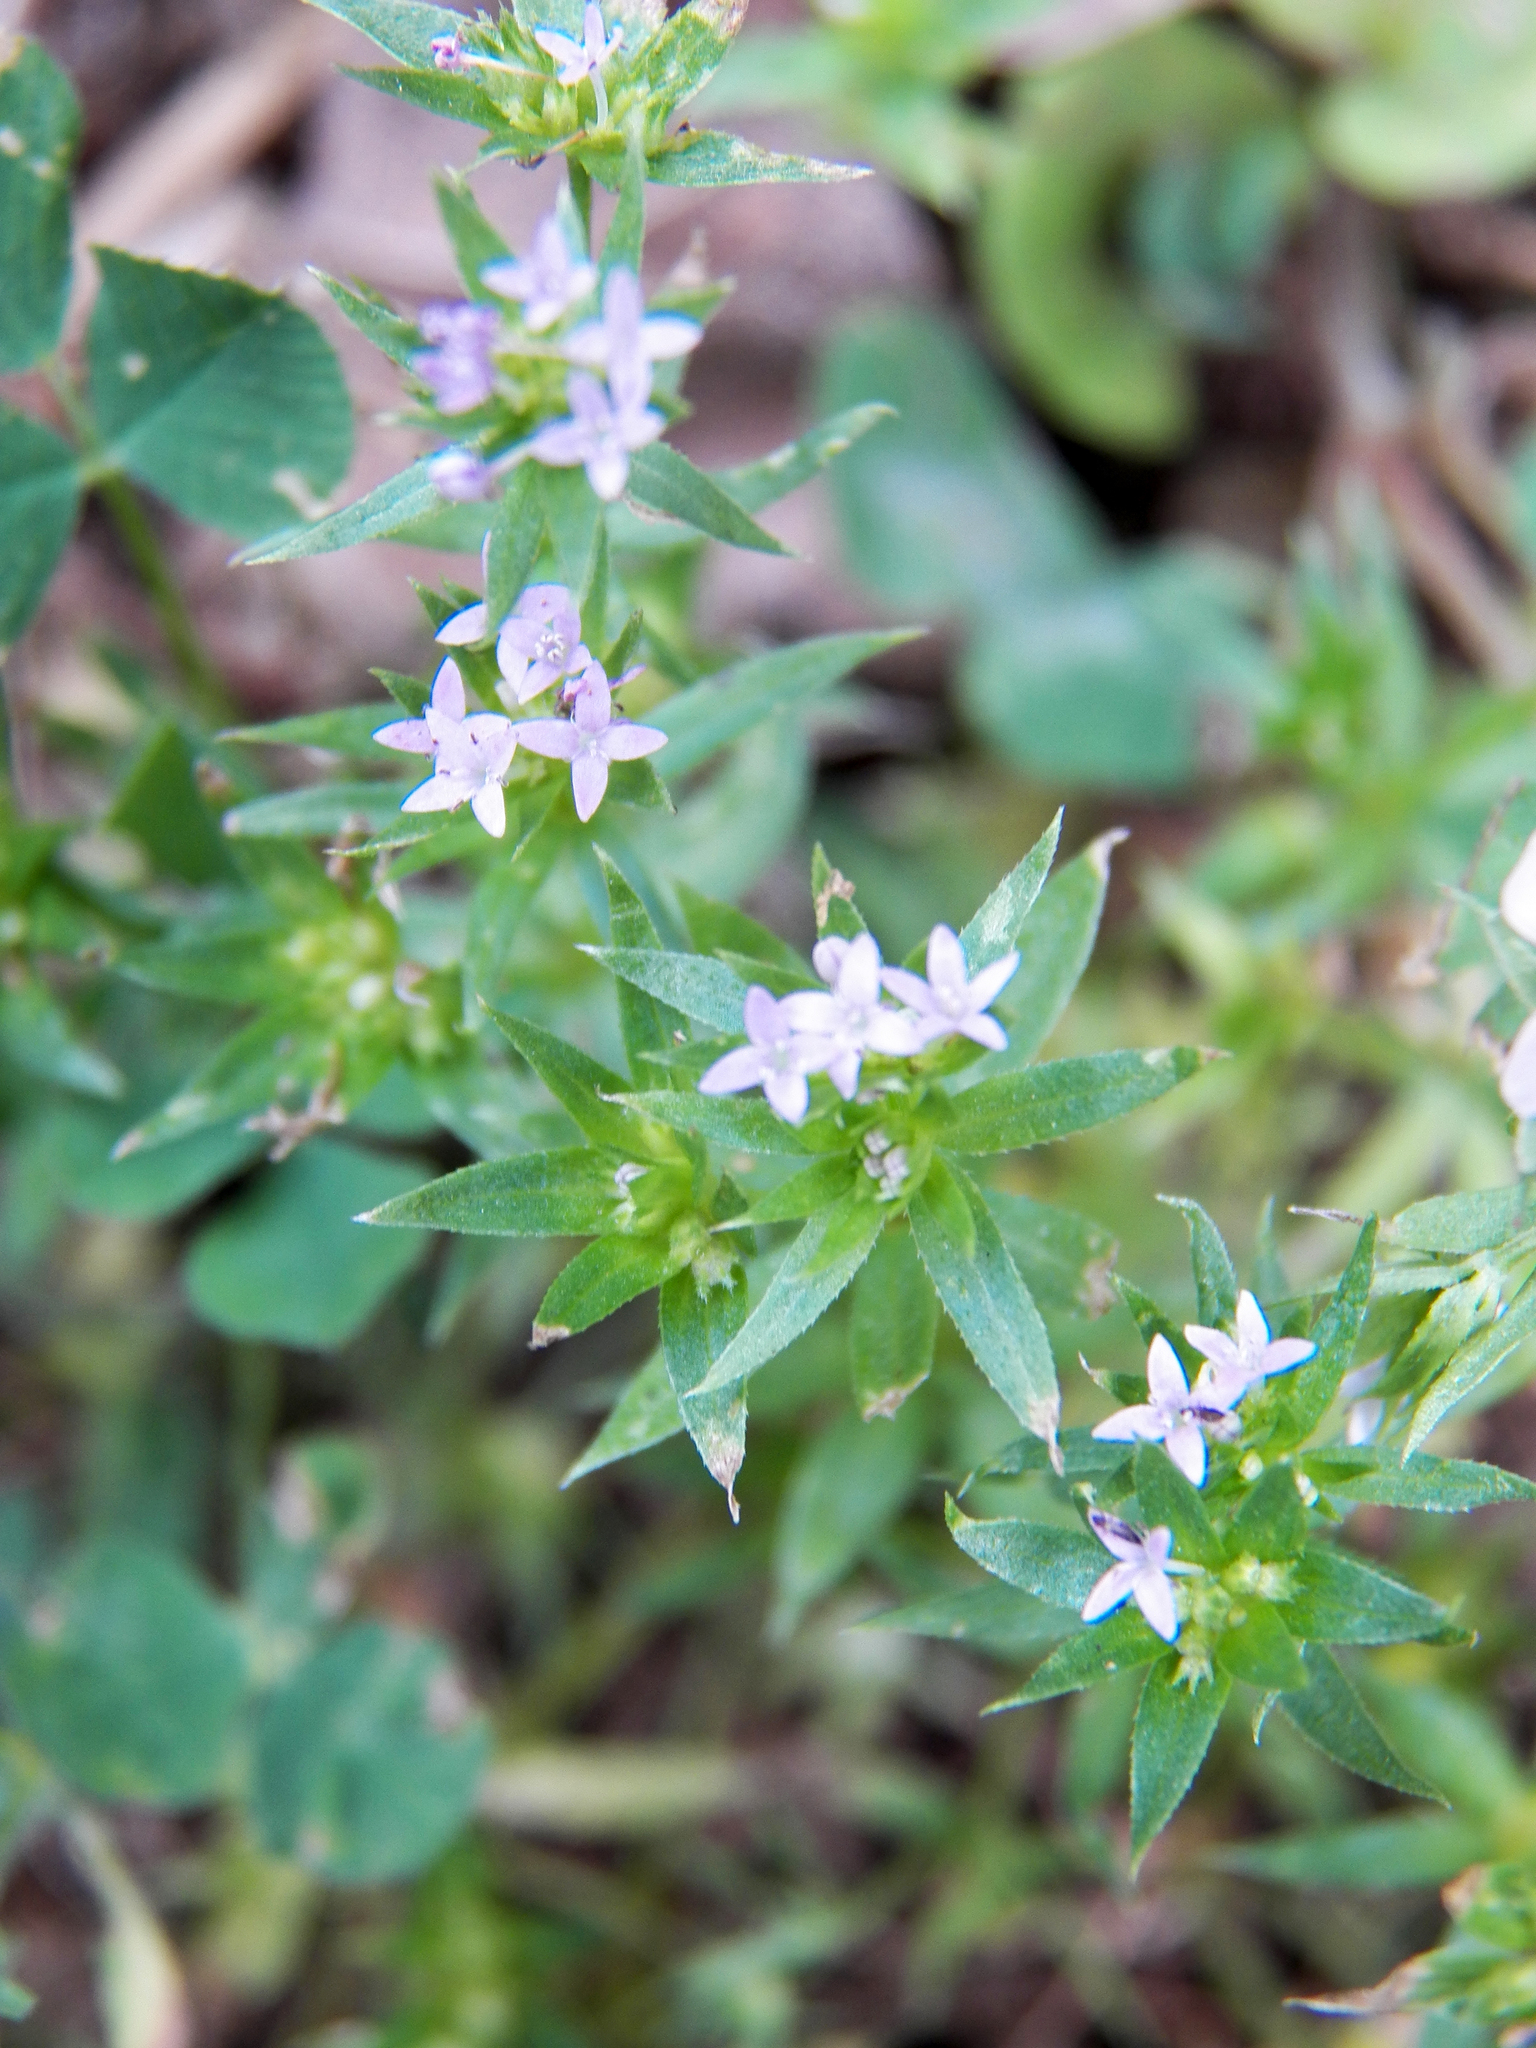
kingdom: Plantae
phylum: Tracheophyta
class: Magnoliopsida
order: Gentianales
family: Rubiaceae
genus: Sherardia
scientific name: Sherardia arvensis
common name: Field madder
